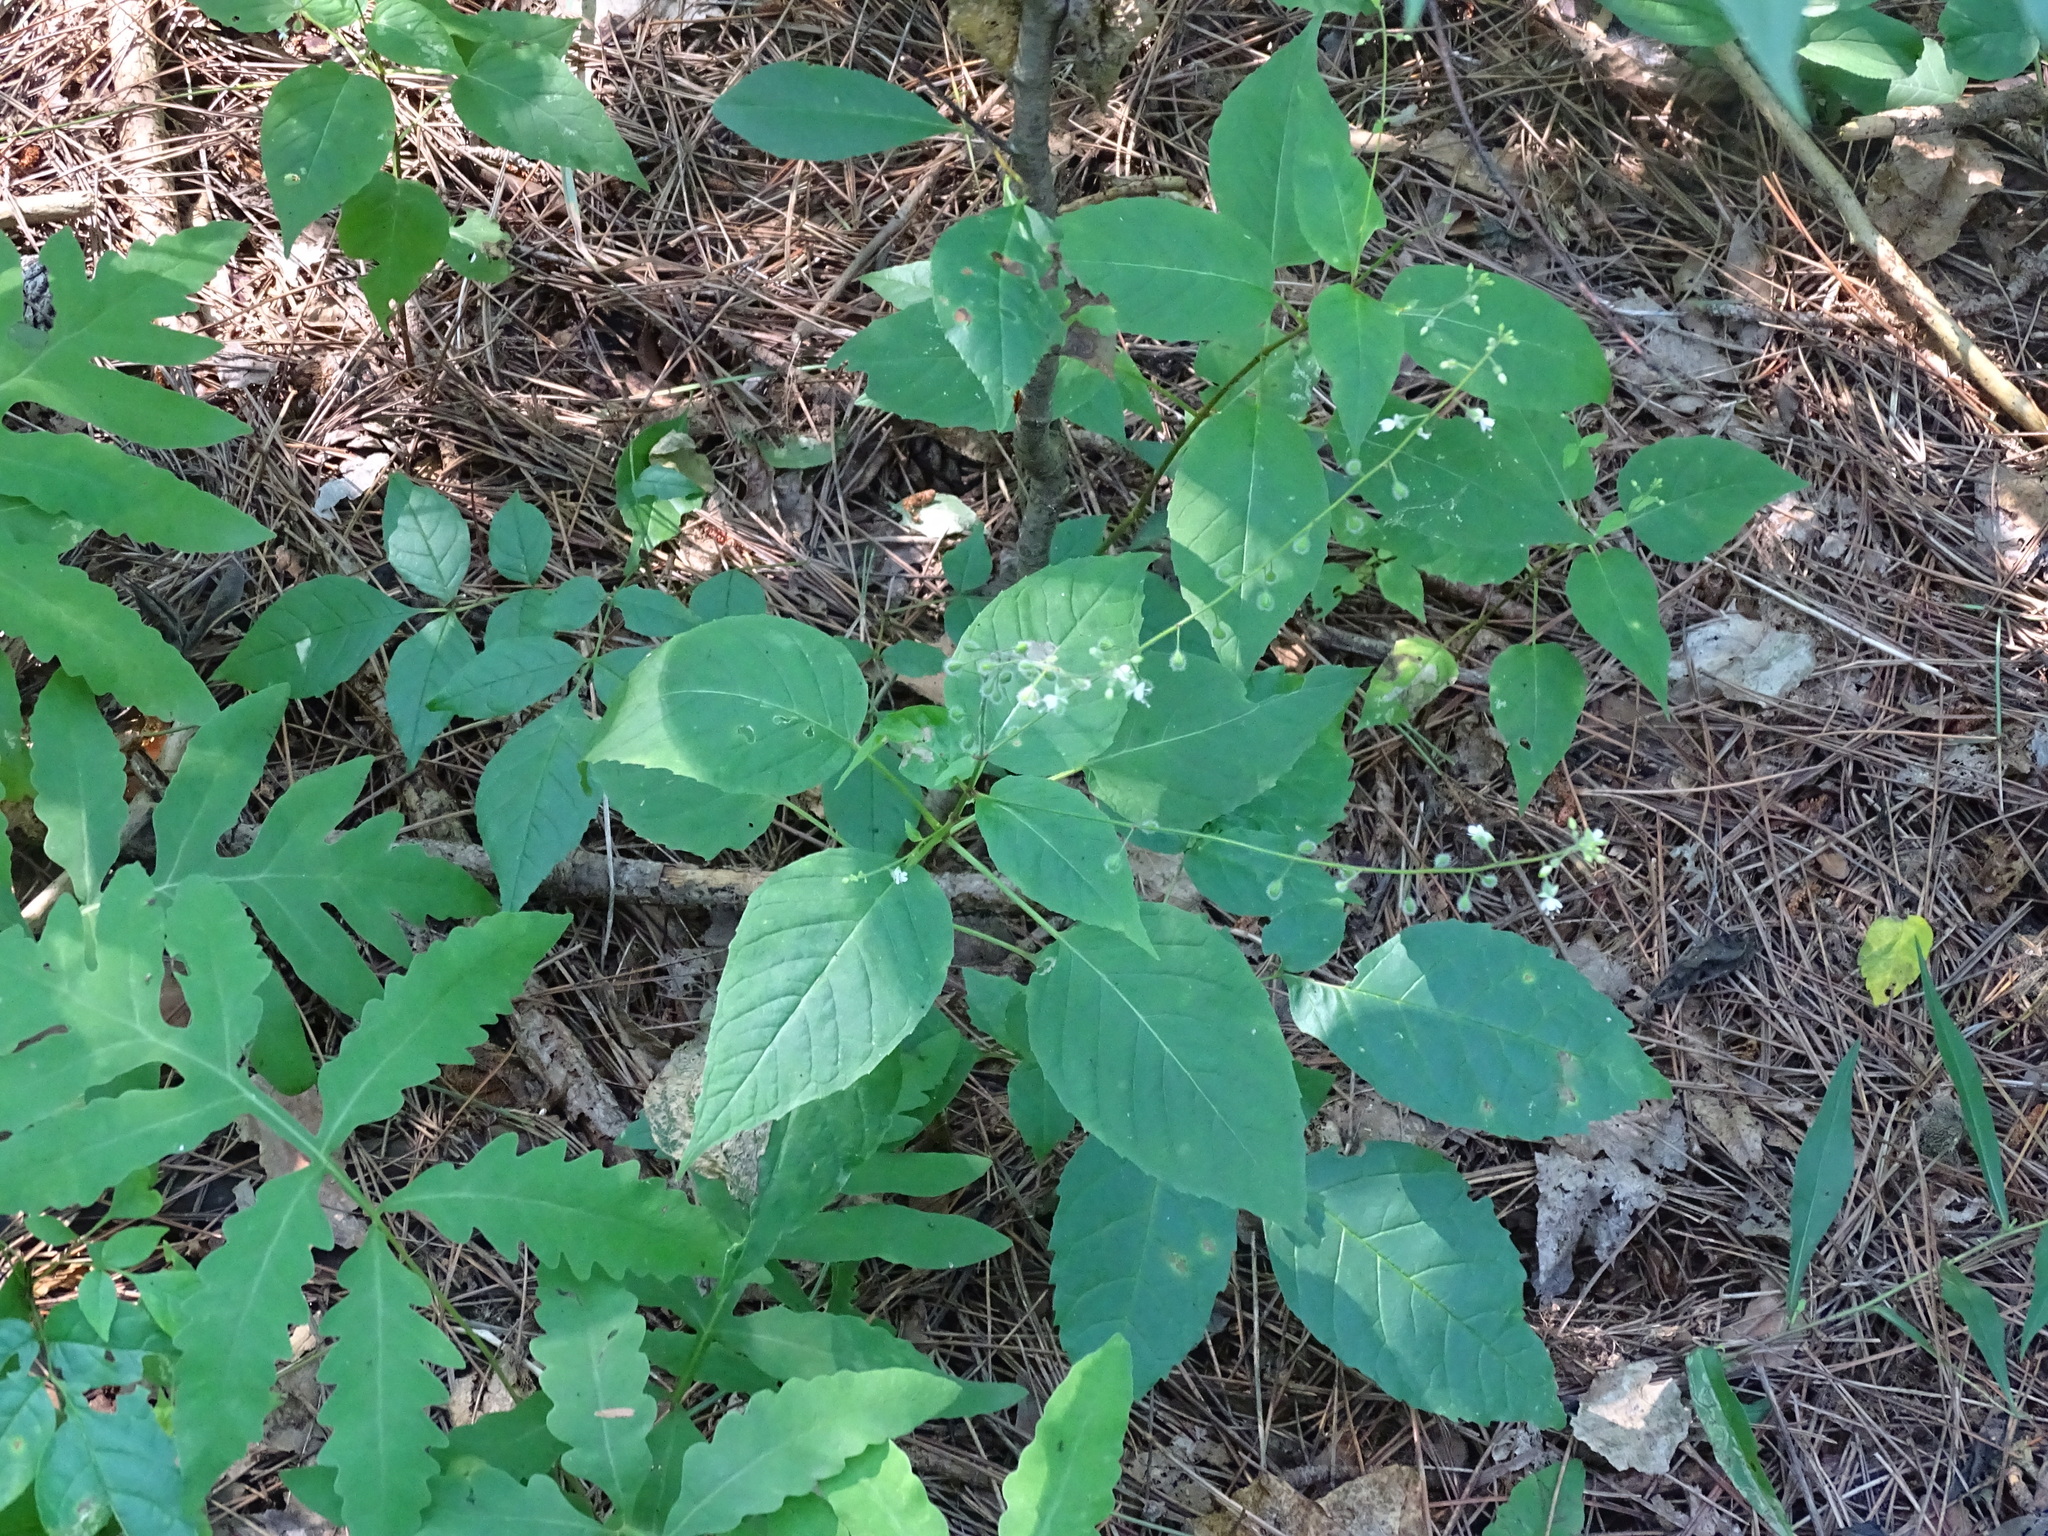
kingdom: Plantae
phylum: Tracheophyta
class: Magnoliopsida
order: Myrtales
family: Onagraceae
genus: Circaea
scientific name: Circaea canadensis
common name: Broad-leaved enchanter's nightshade
